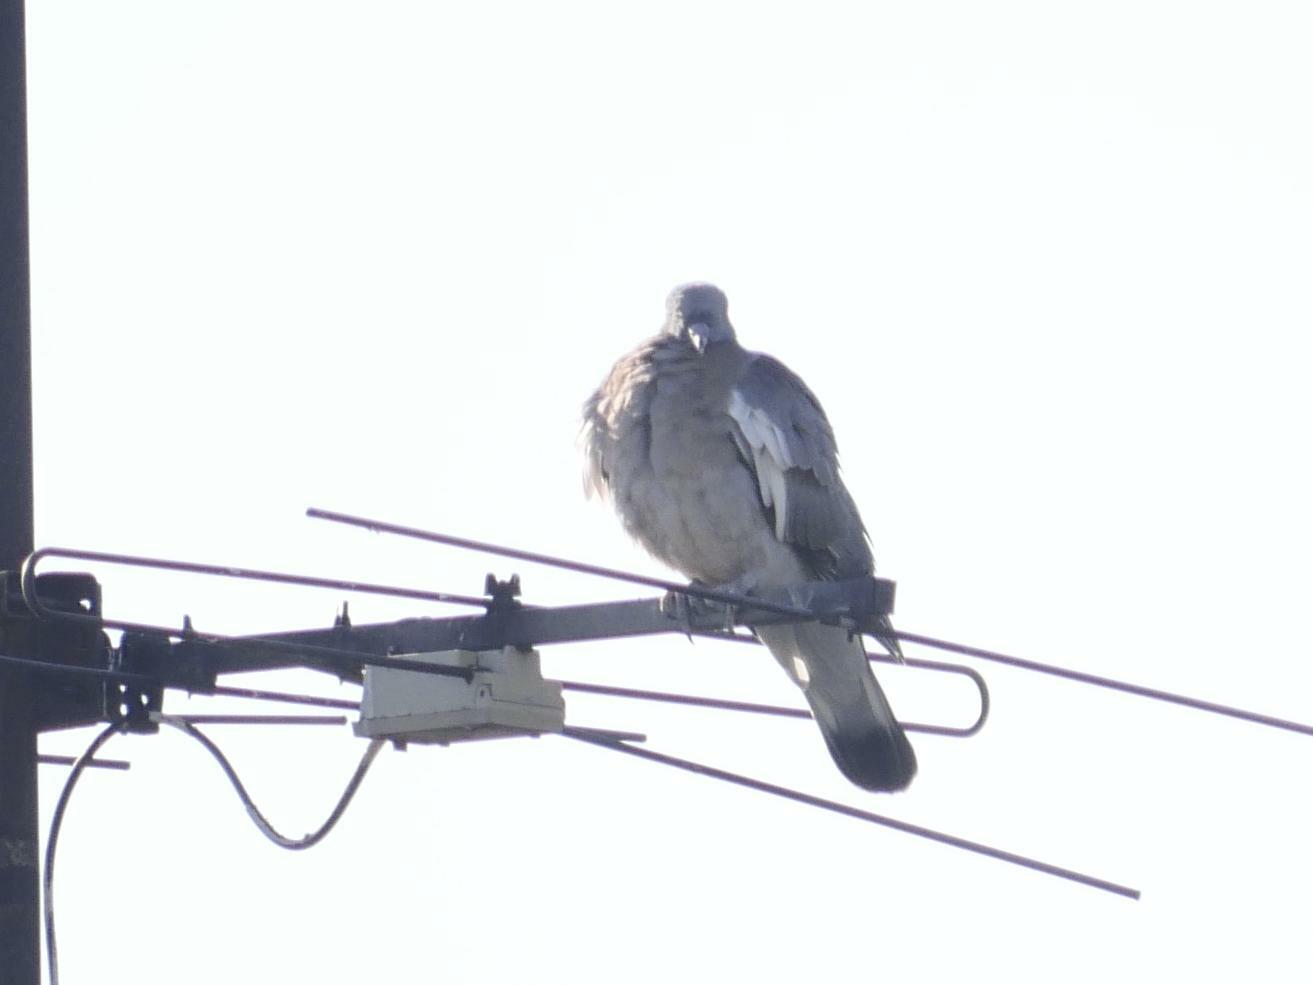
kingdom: Animalia
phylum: Chordata
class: Aves
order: Columbiformes
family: Columbidae
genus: Columba
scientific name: Columba palumbus
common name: Common wood pigeon
